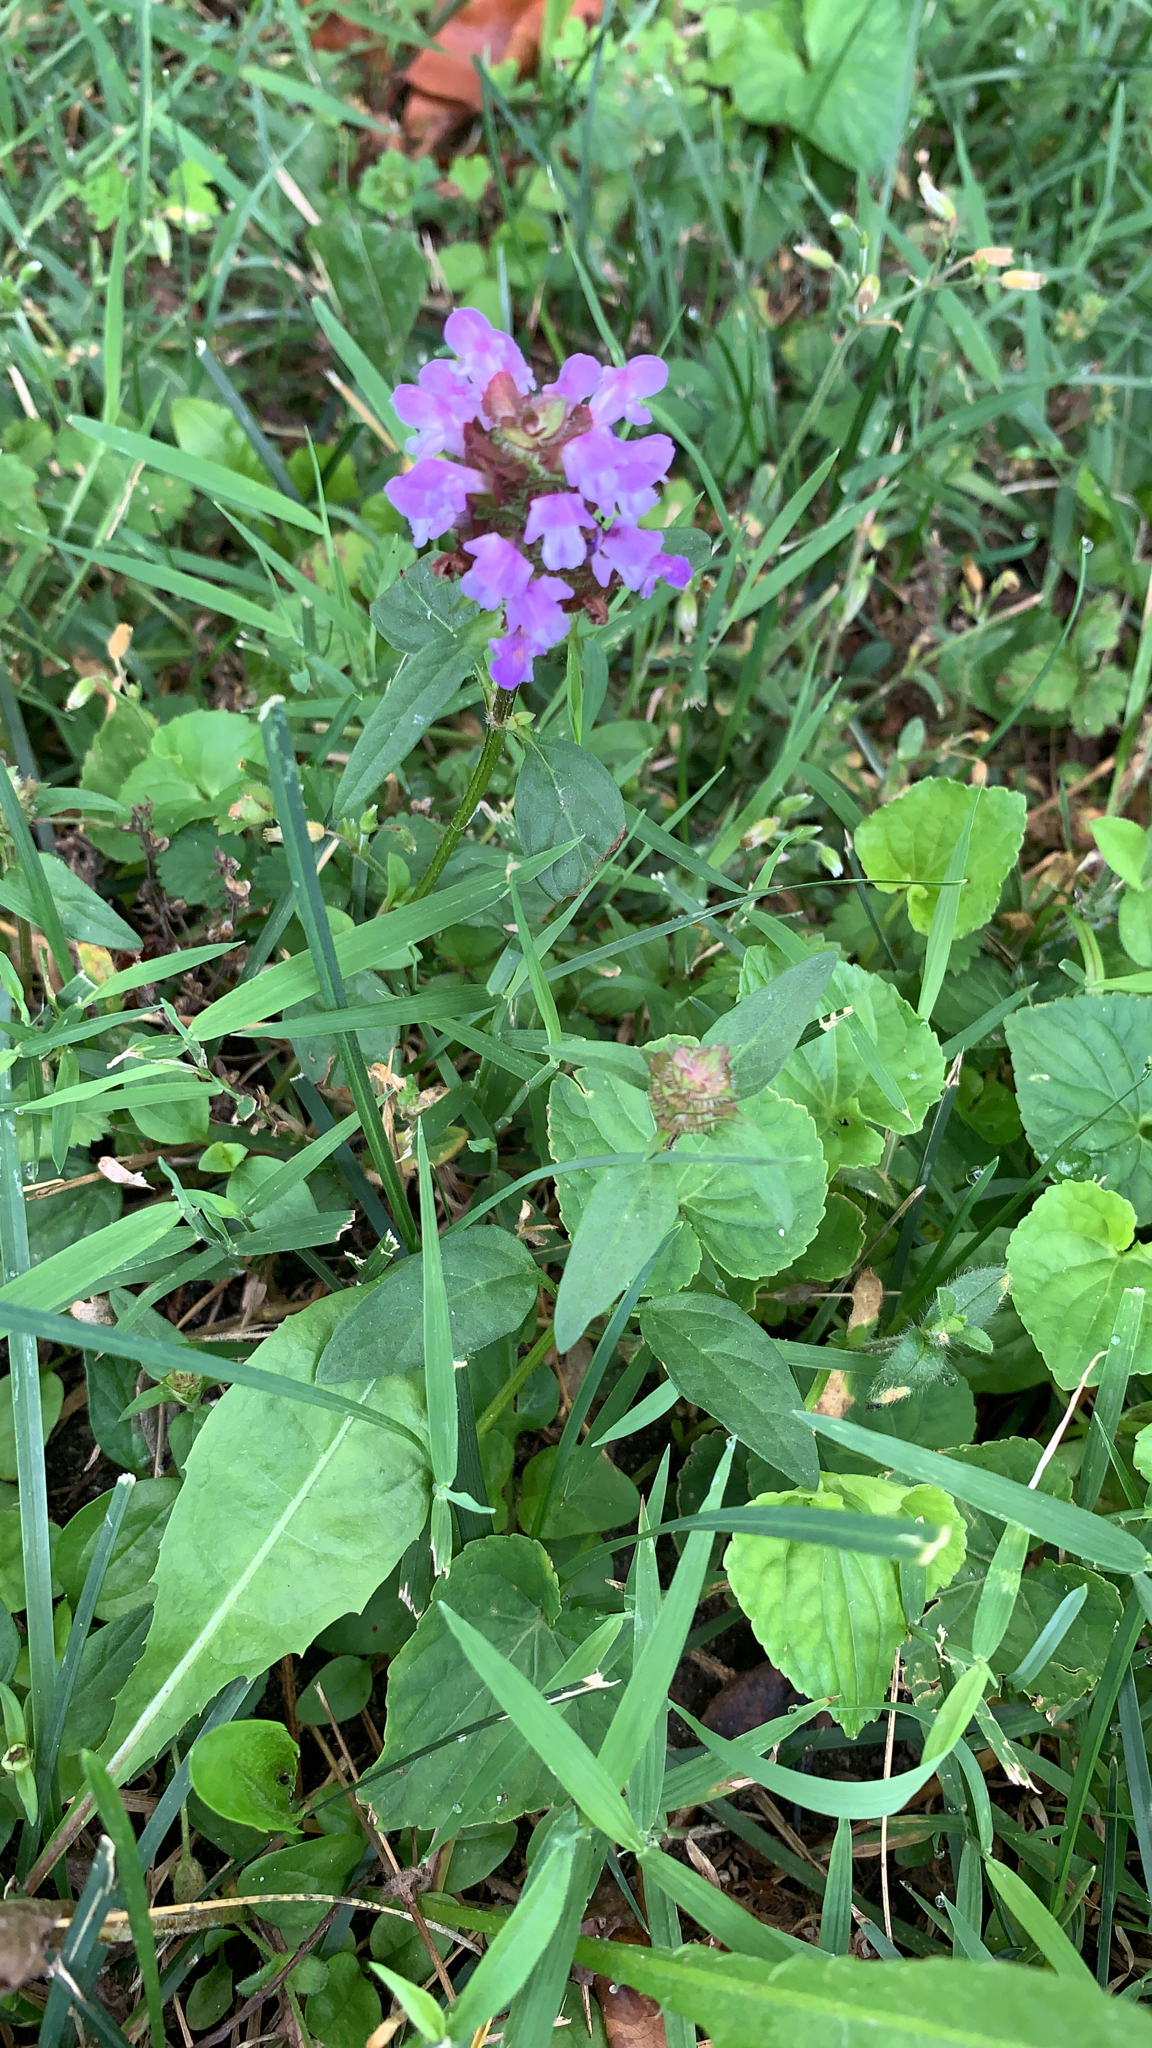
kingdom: Plantae
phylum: Tracheophyta
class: Magnoliopsida
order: Lamiales
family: Lamiaceae
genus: Prunella
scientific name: Prunella vulgaris
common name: Heal-all
